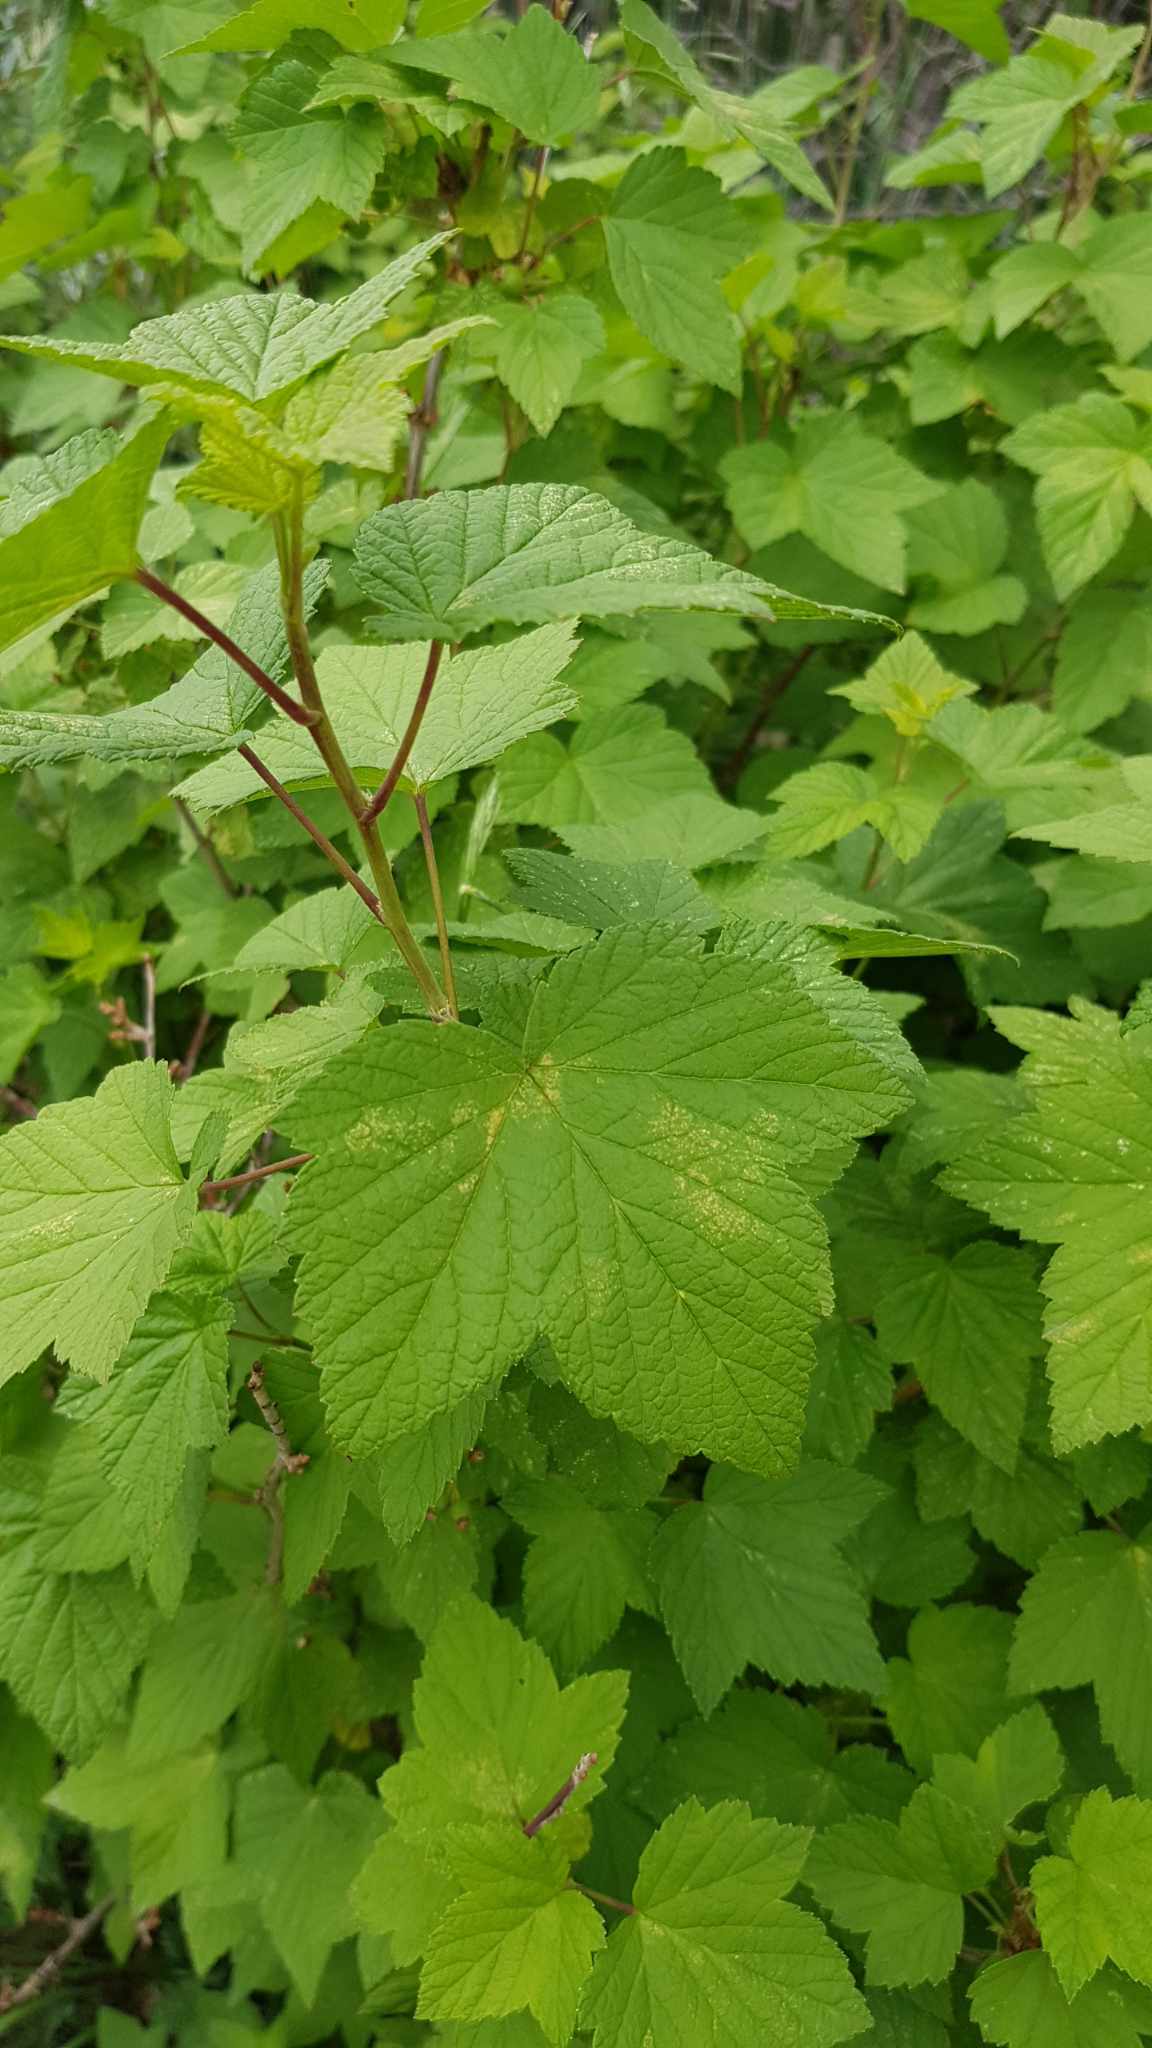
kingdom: Plantae
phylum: Tracheophyta
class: Magnoliopsida
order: Saxifragales
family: Grossulariaceae
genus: Ribes
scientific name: Ribes nigrum
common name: Black currant
